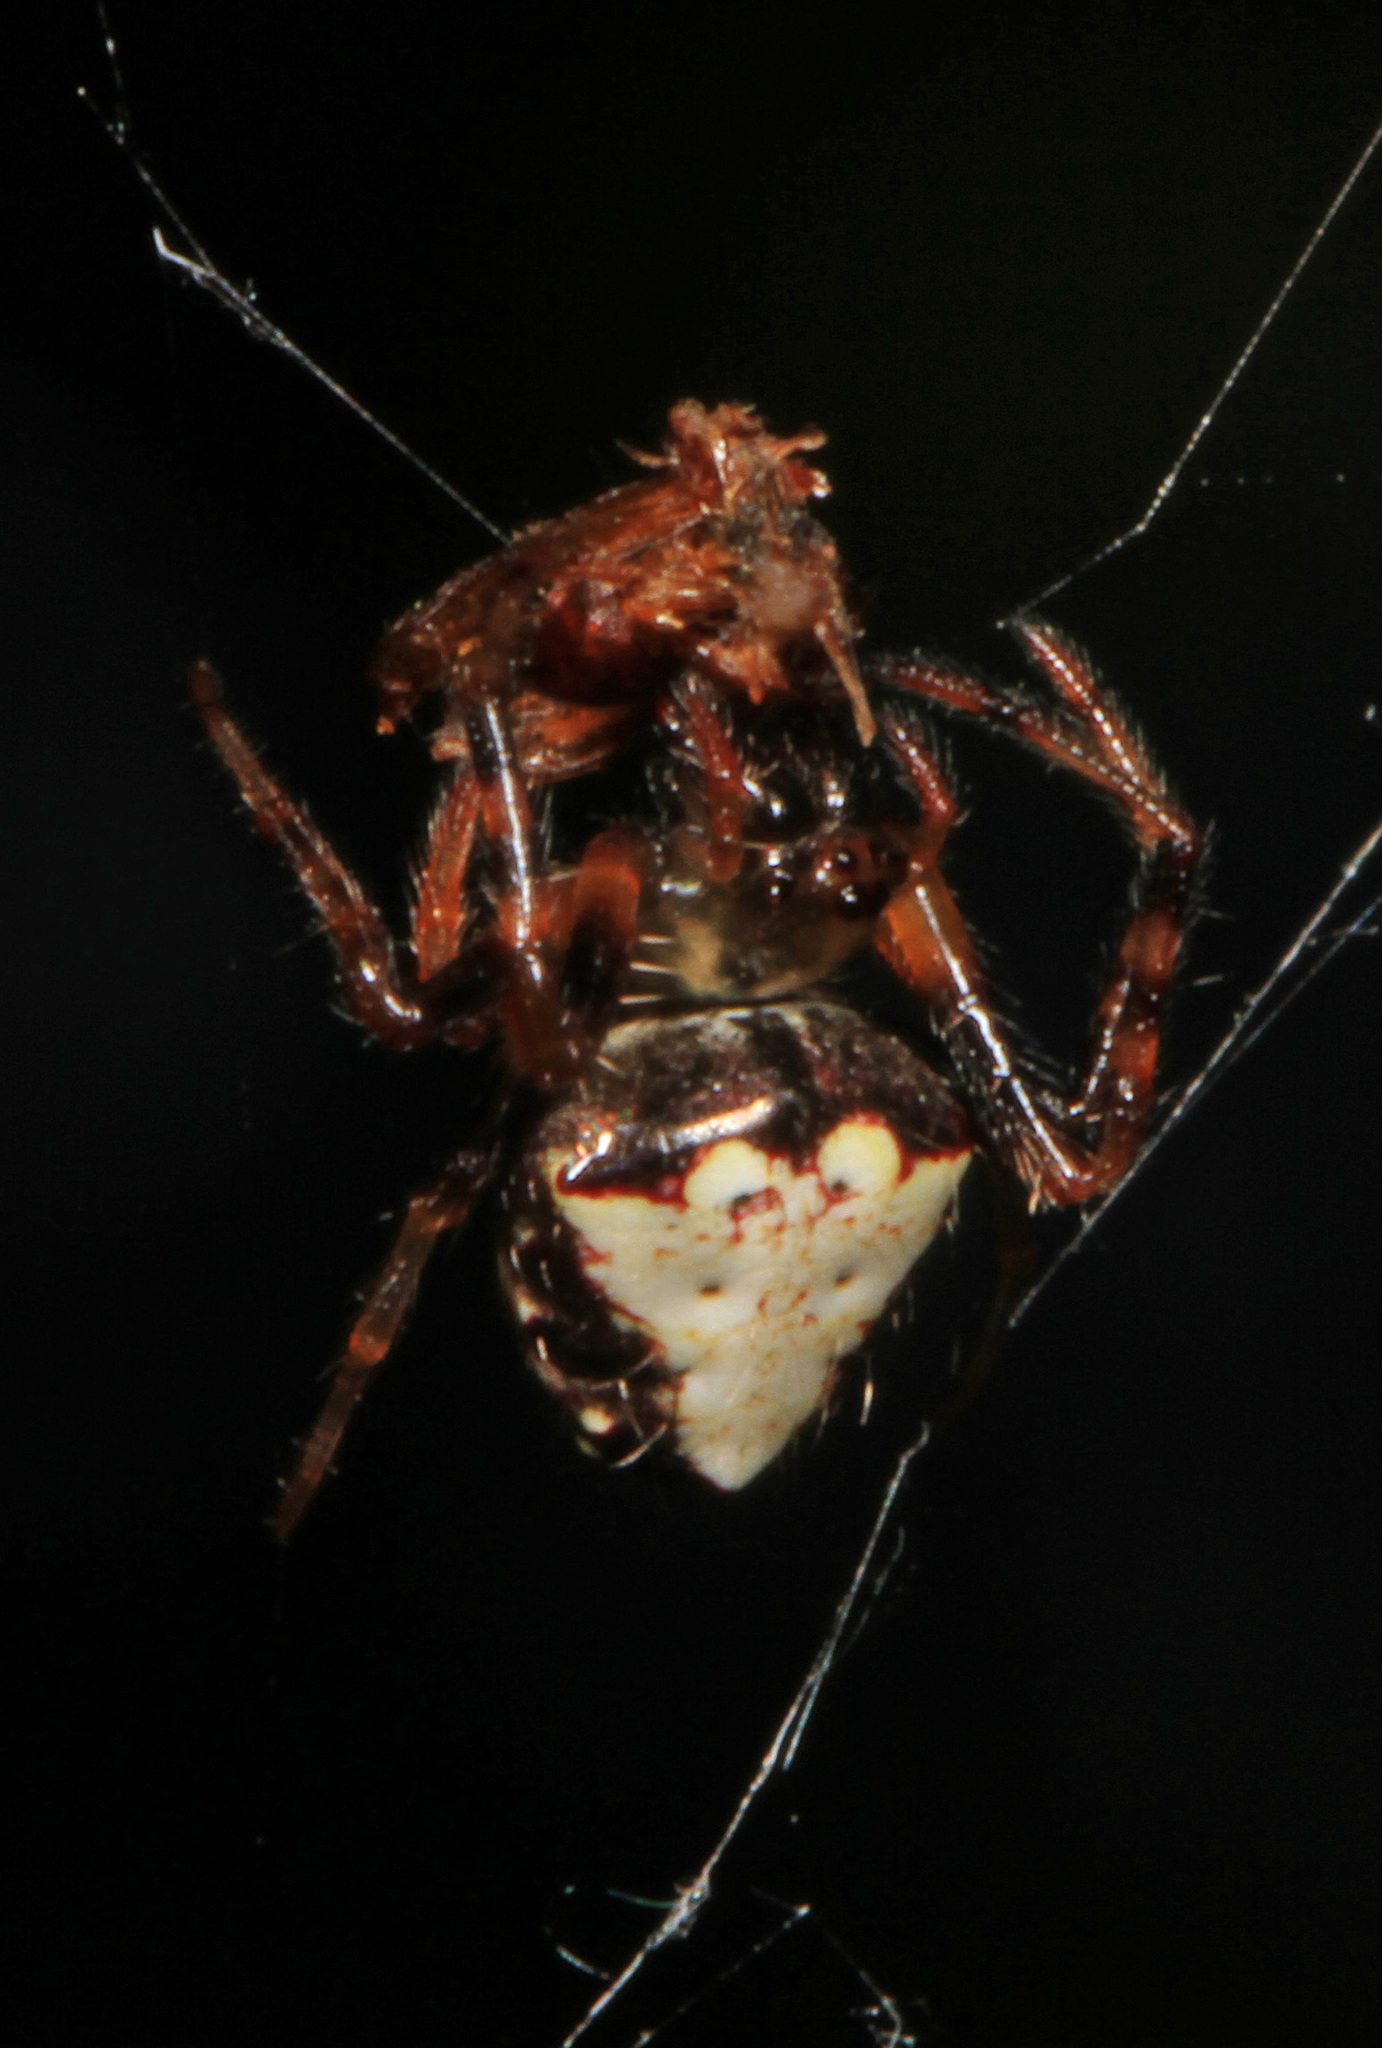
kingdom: Animalia
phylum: Arthropoda
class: Arachnida
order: Araneae
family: Araneidae
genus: Verrucosa
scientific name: Verrucosa arenata
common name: Orb weavers
